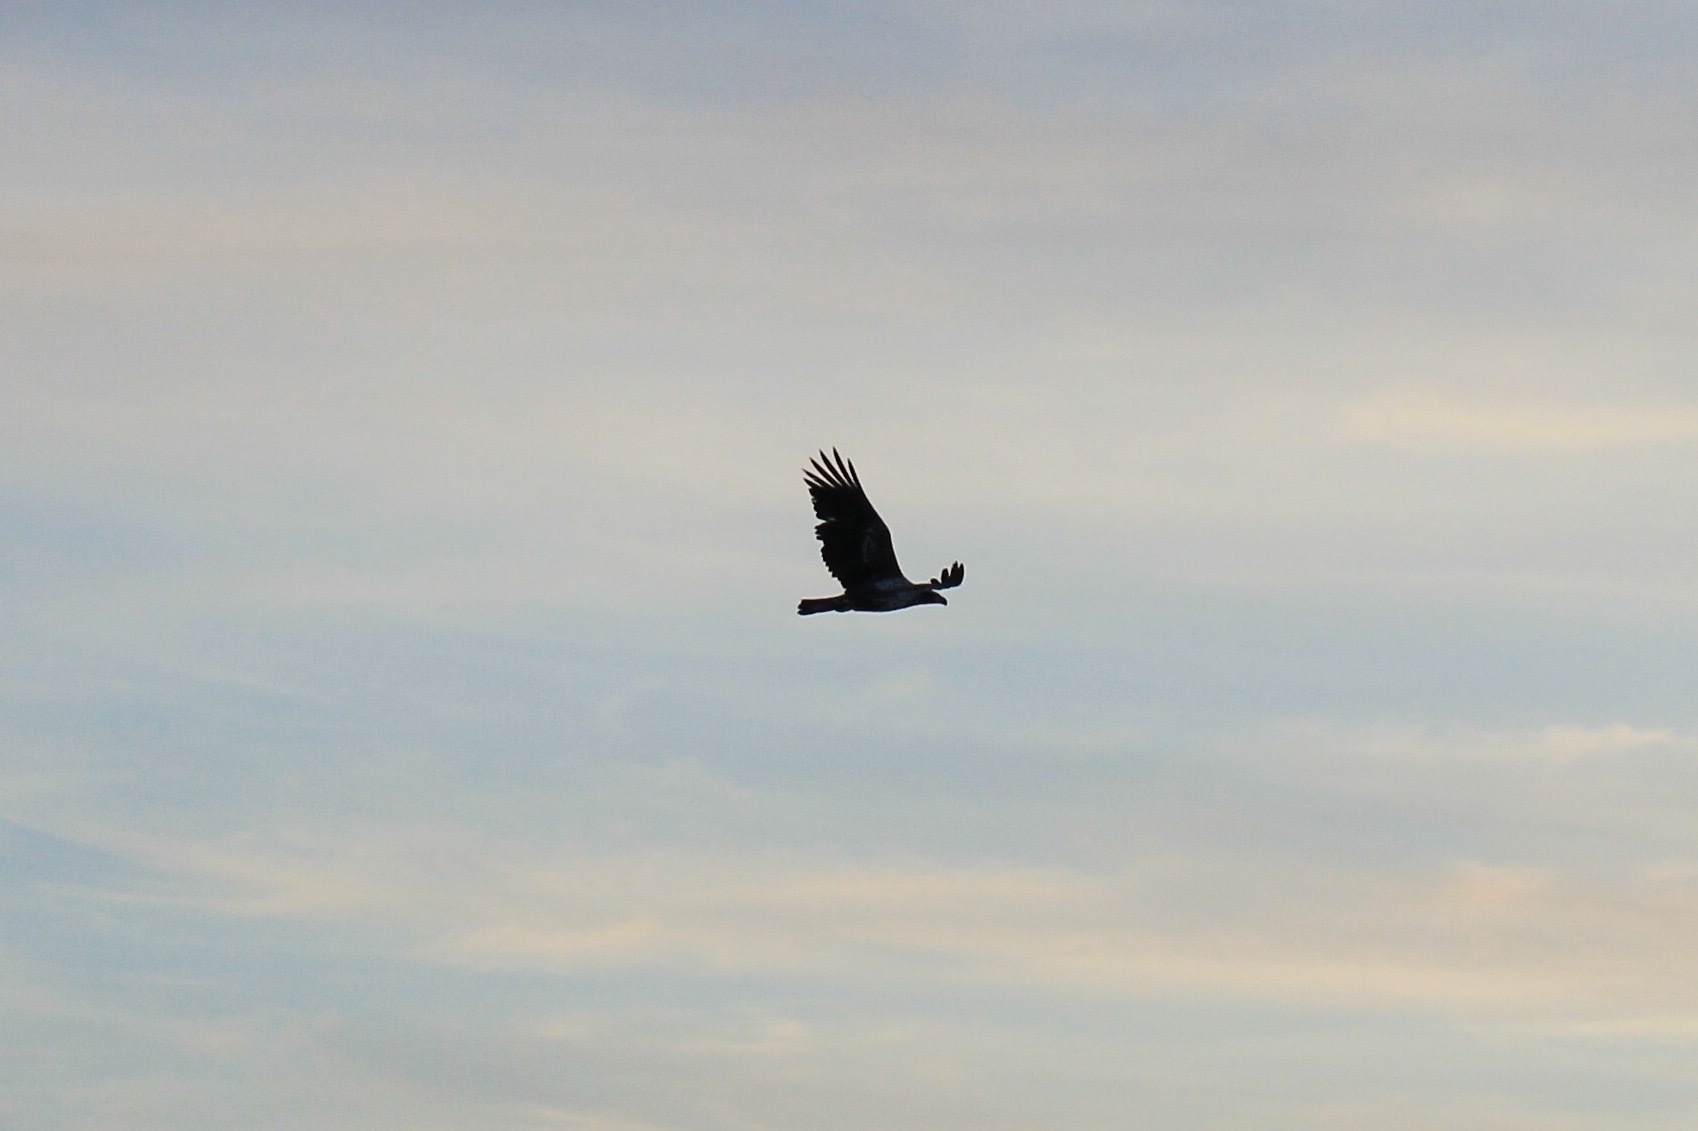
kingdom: Animalia
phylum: Chordata
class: Aves
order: Accipitriformes
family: Accipitridae
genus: Haliaeetus
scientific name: Haliaeetus leucocephalus
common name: Bald eagle
